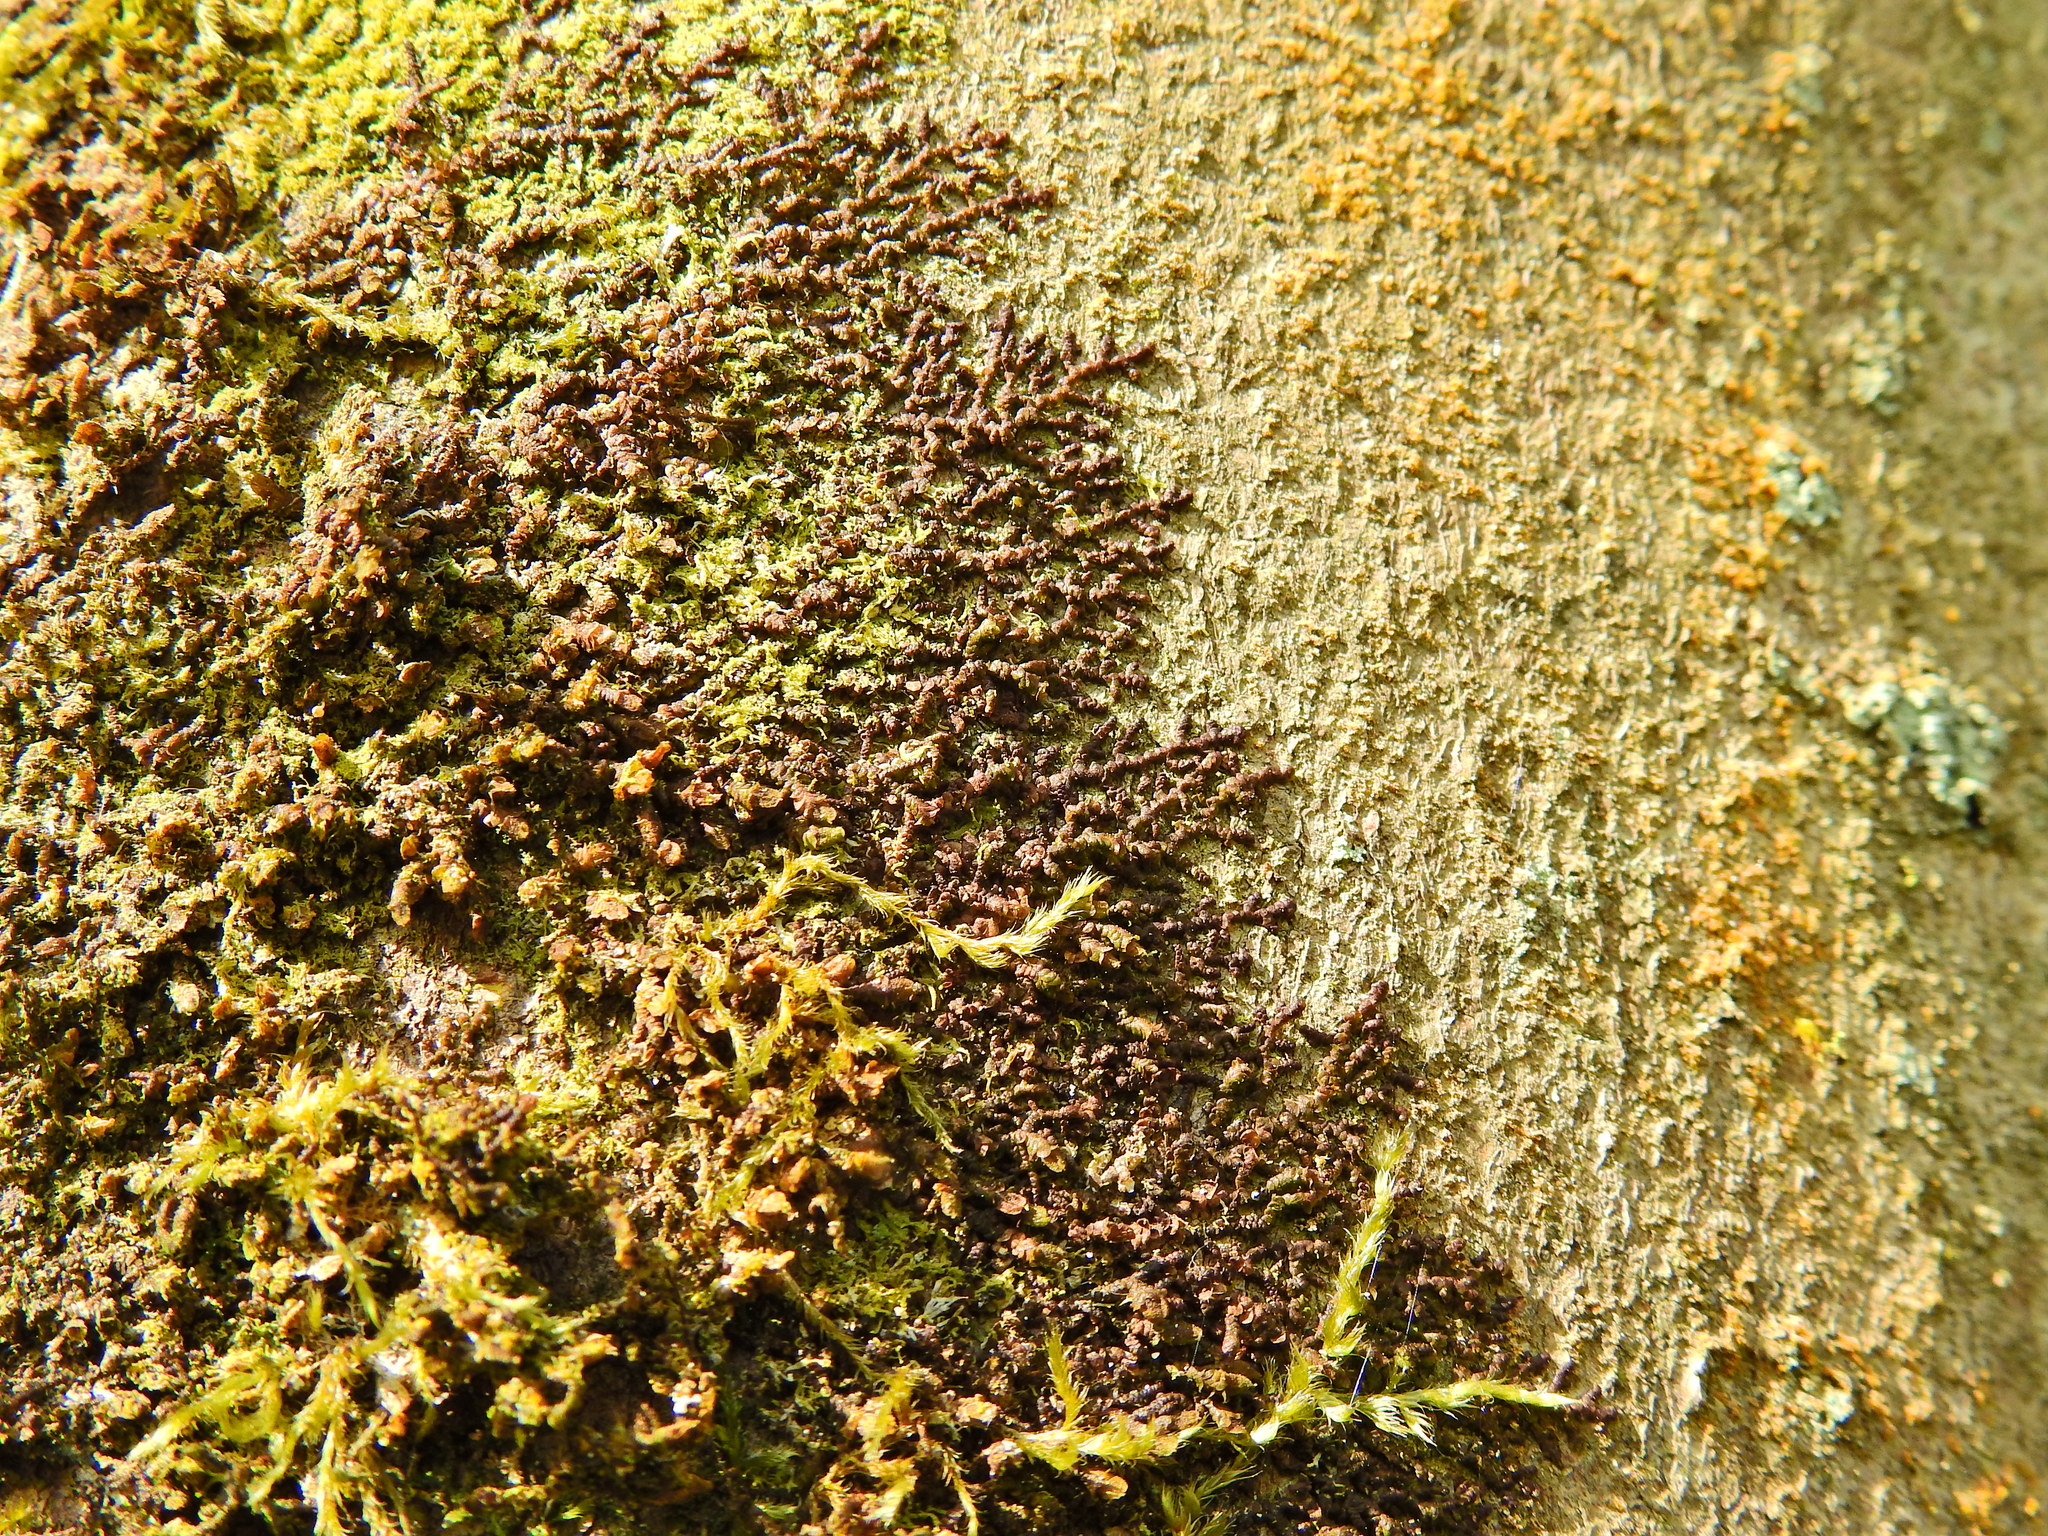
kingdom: Plantae
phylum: Marchantiophyta
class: Jungermanniopsida
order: Porellales
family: Frullaniaceae
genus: Frullania
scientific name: Frullania dilatata
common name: Dilated scalewort
